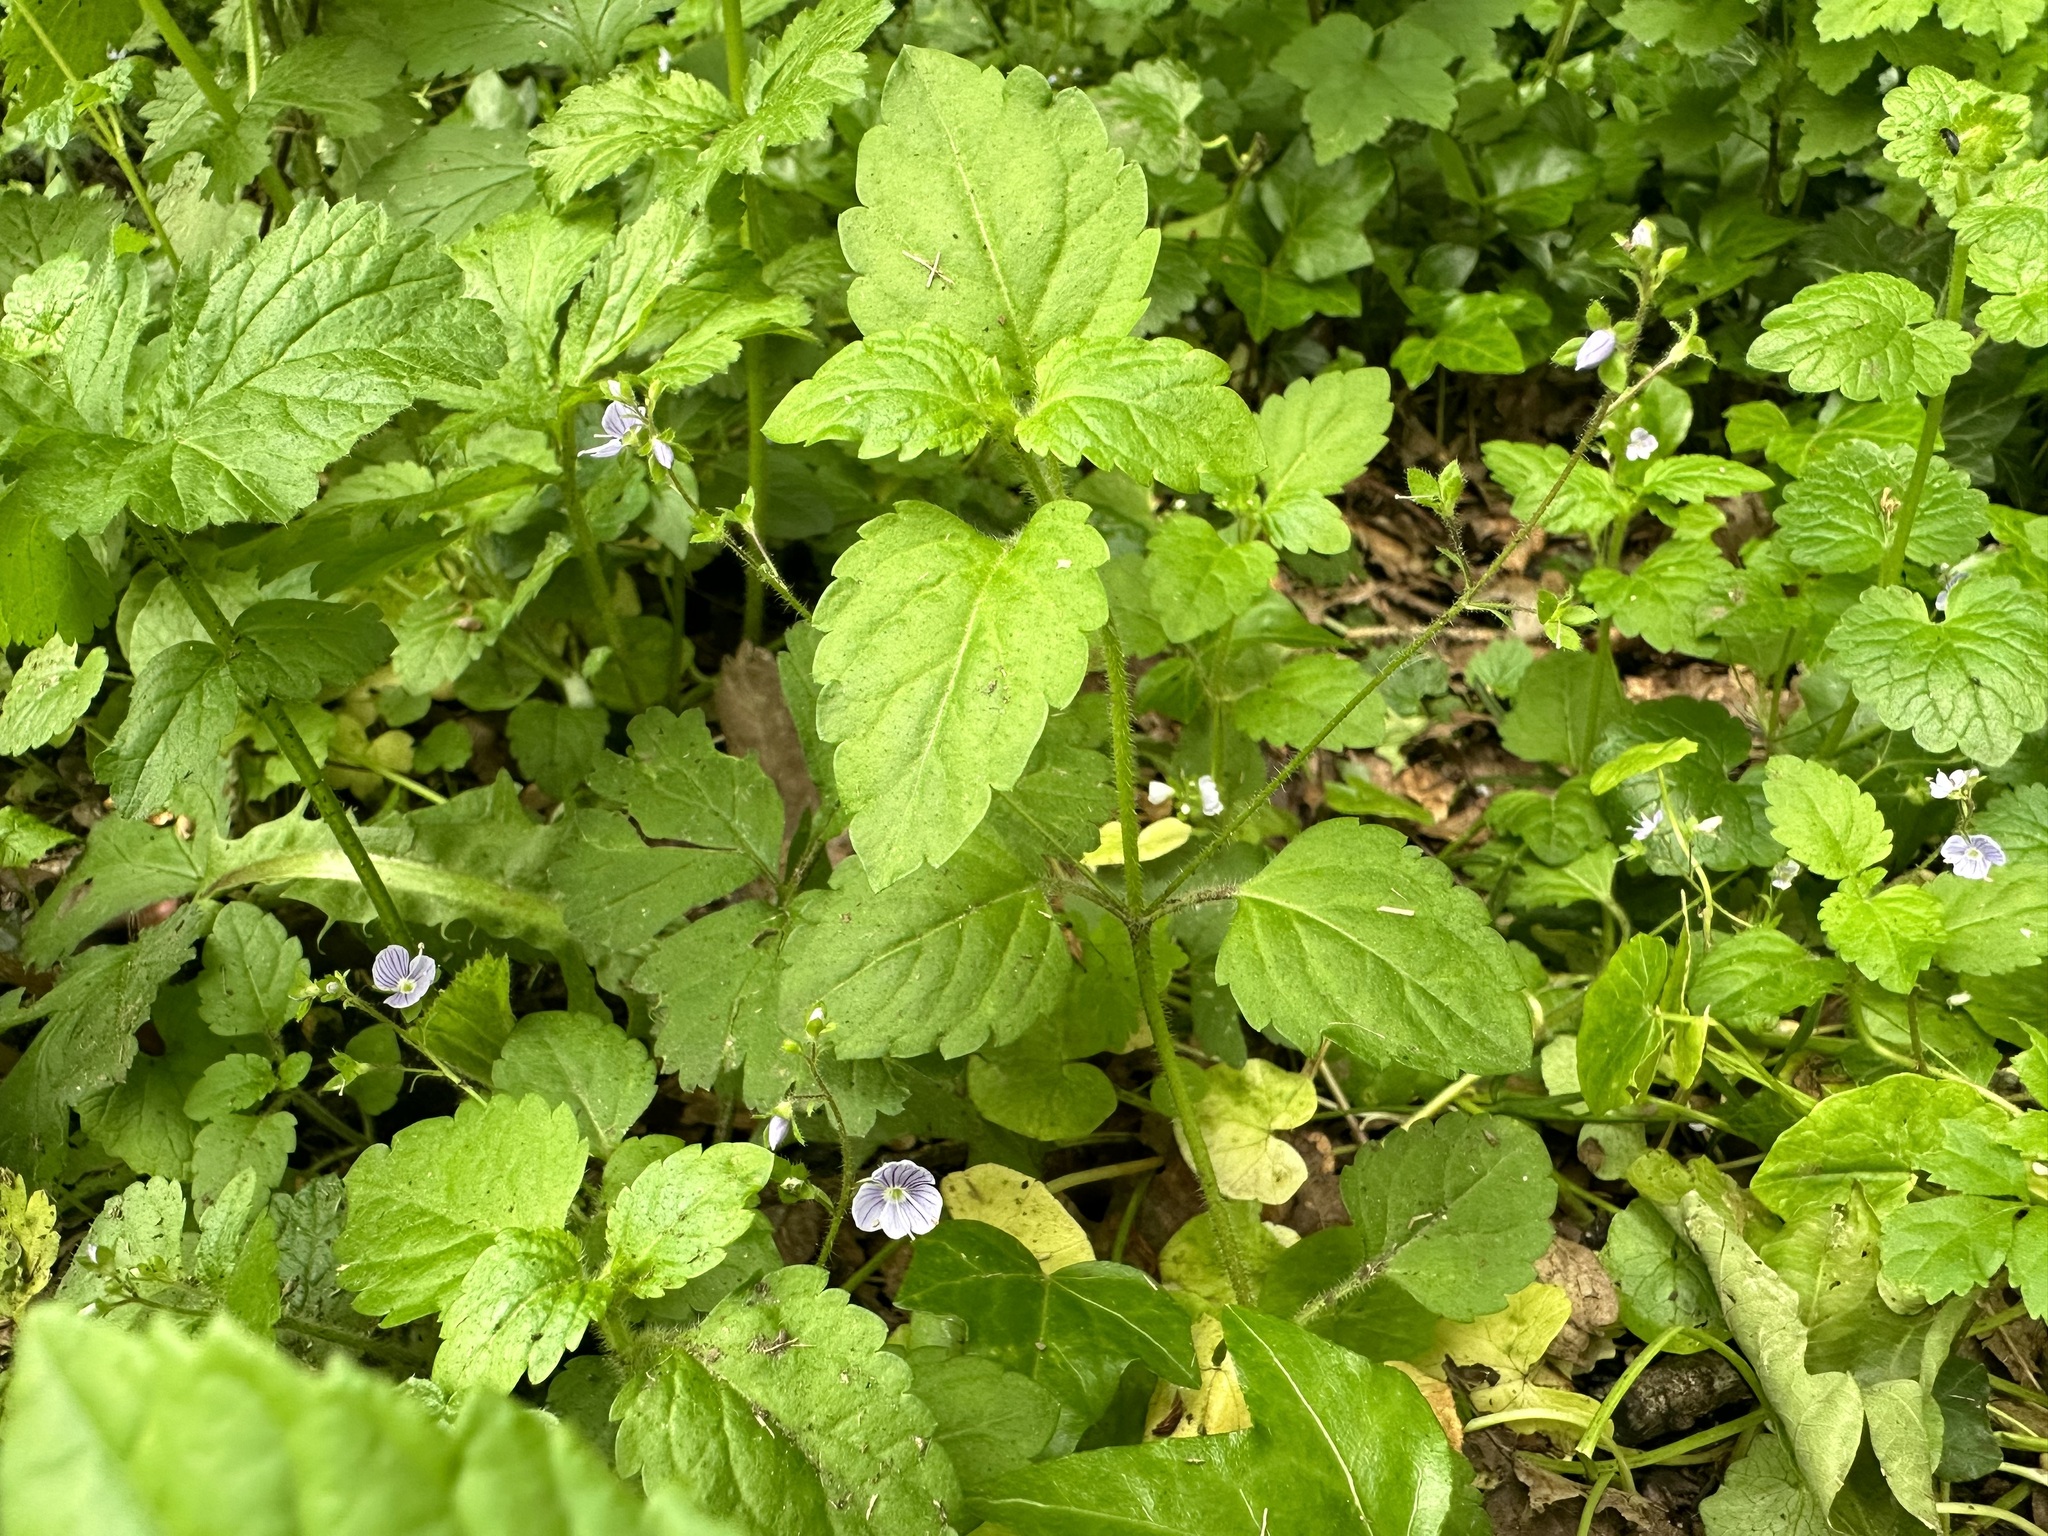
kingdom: Plantae
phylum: Tracheophyta
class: Magnoliopsida
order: Lamiales
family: Plantaginaceae
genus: Veronica
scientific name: Veronica montana
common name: Wood speedwell
